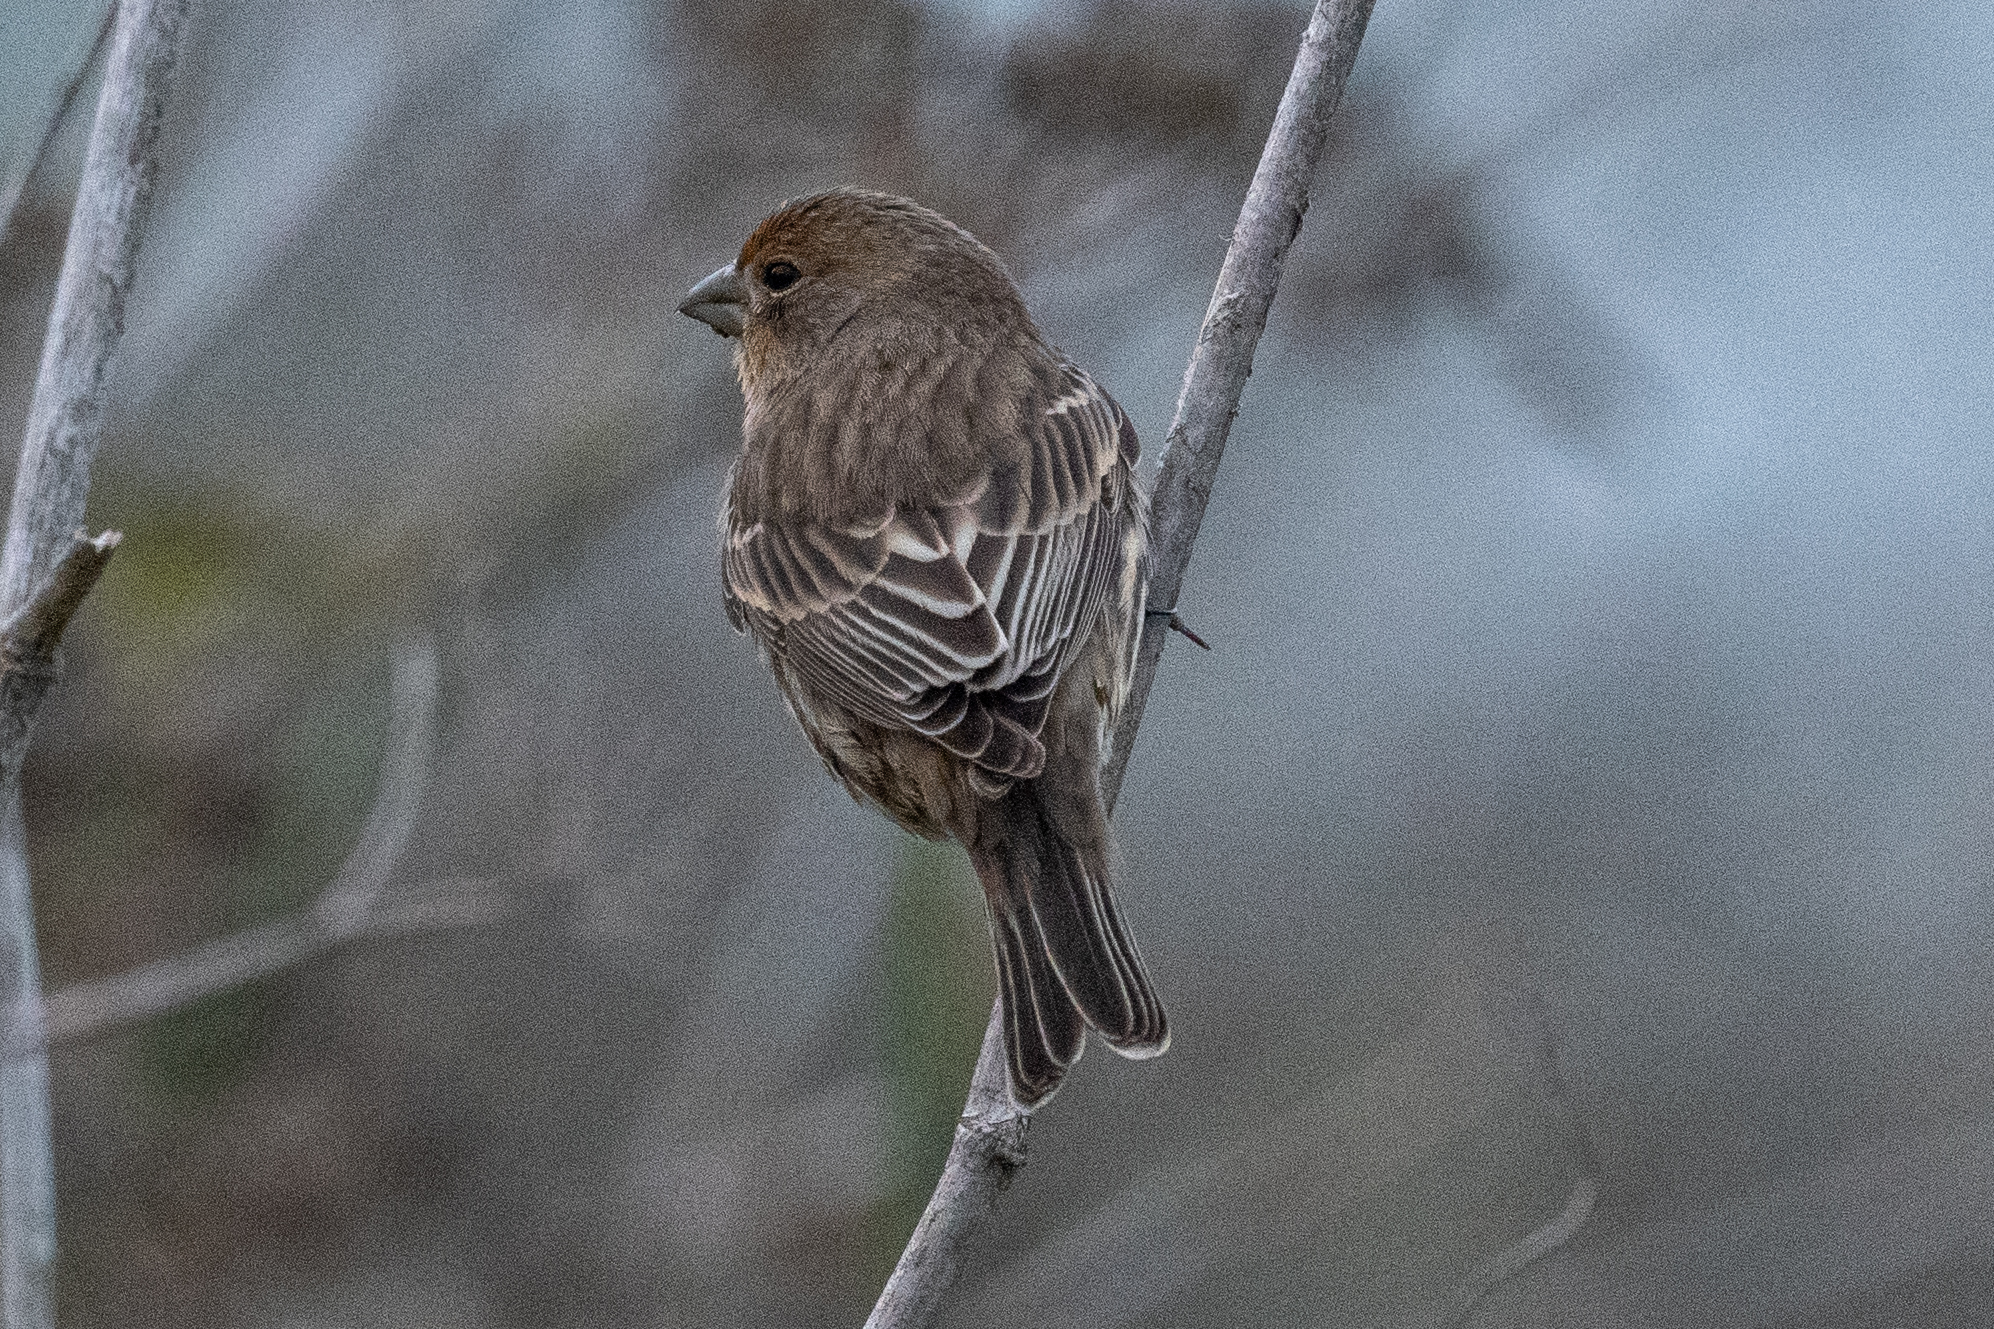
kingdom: Animalia
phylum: Chordata
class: Aves
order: Passeriformes
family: Fringillidae
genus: Haemorhous
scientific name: Haemorhous mexicanus
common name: House finch
